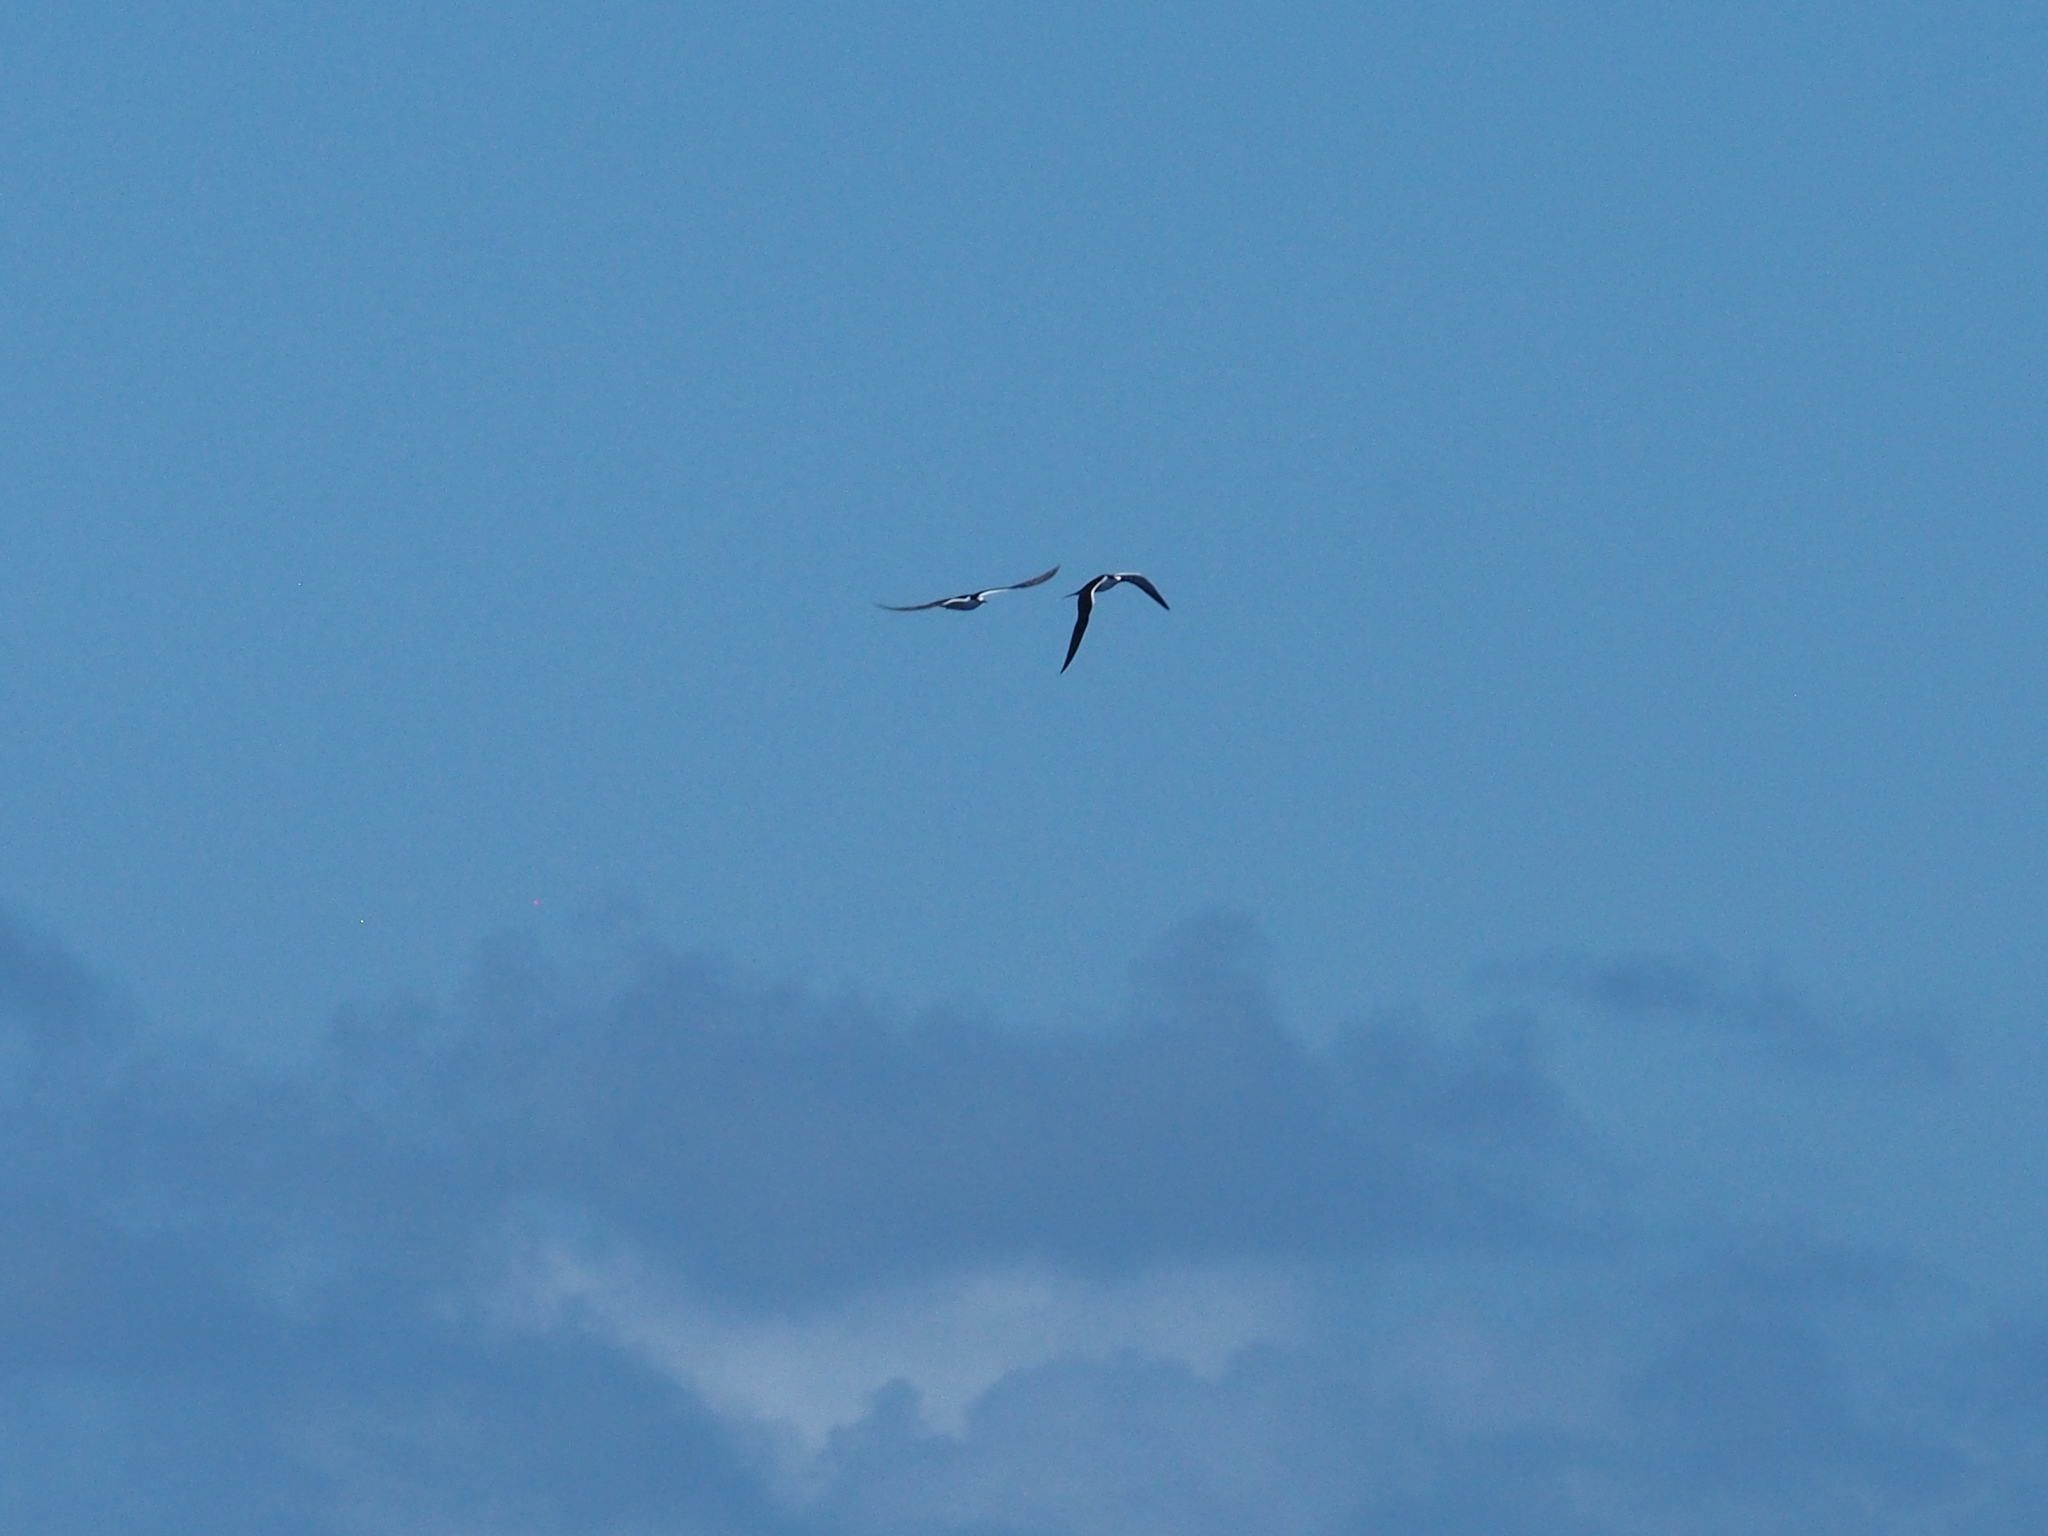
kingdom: Animalia
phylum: Chordata
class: Aves
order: Charadriiformes
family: Laridae
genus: Onychoprion
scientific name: Onychoprion fuscatus
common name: Sooty tern
